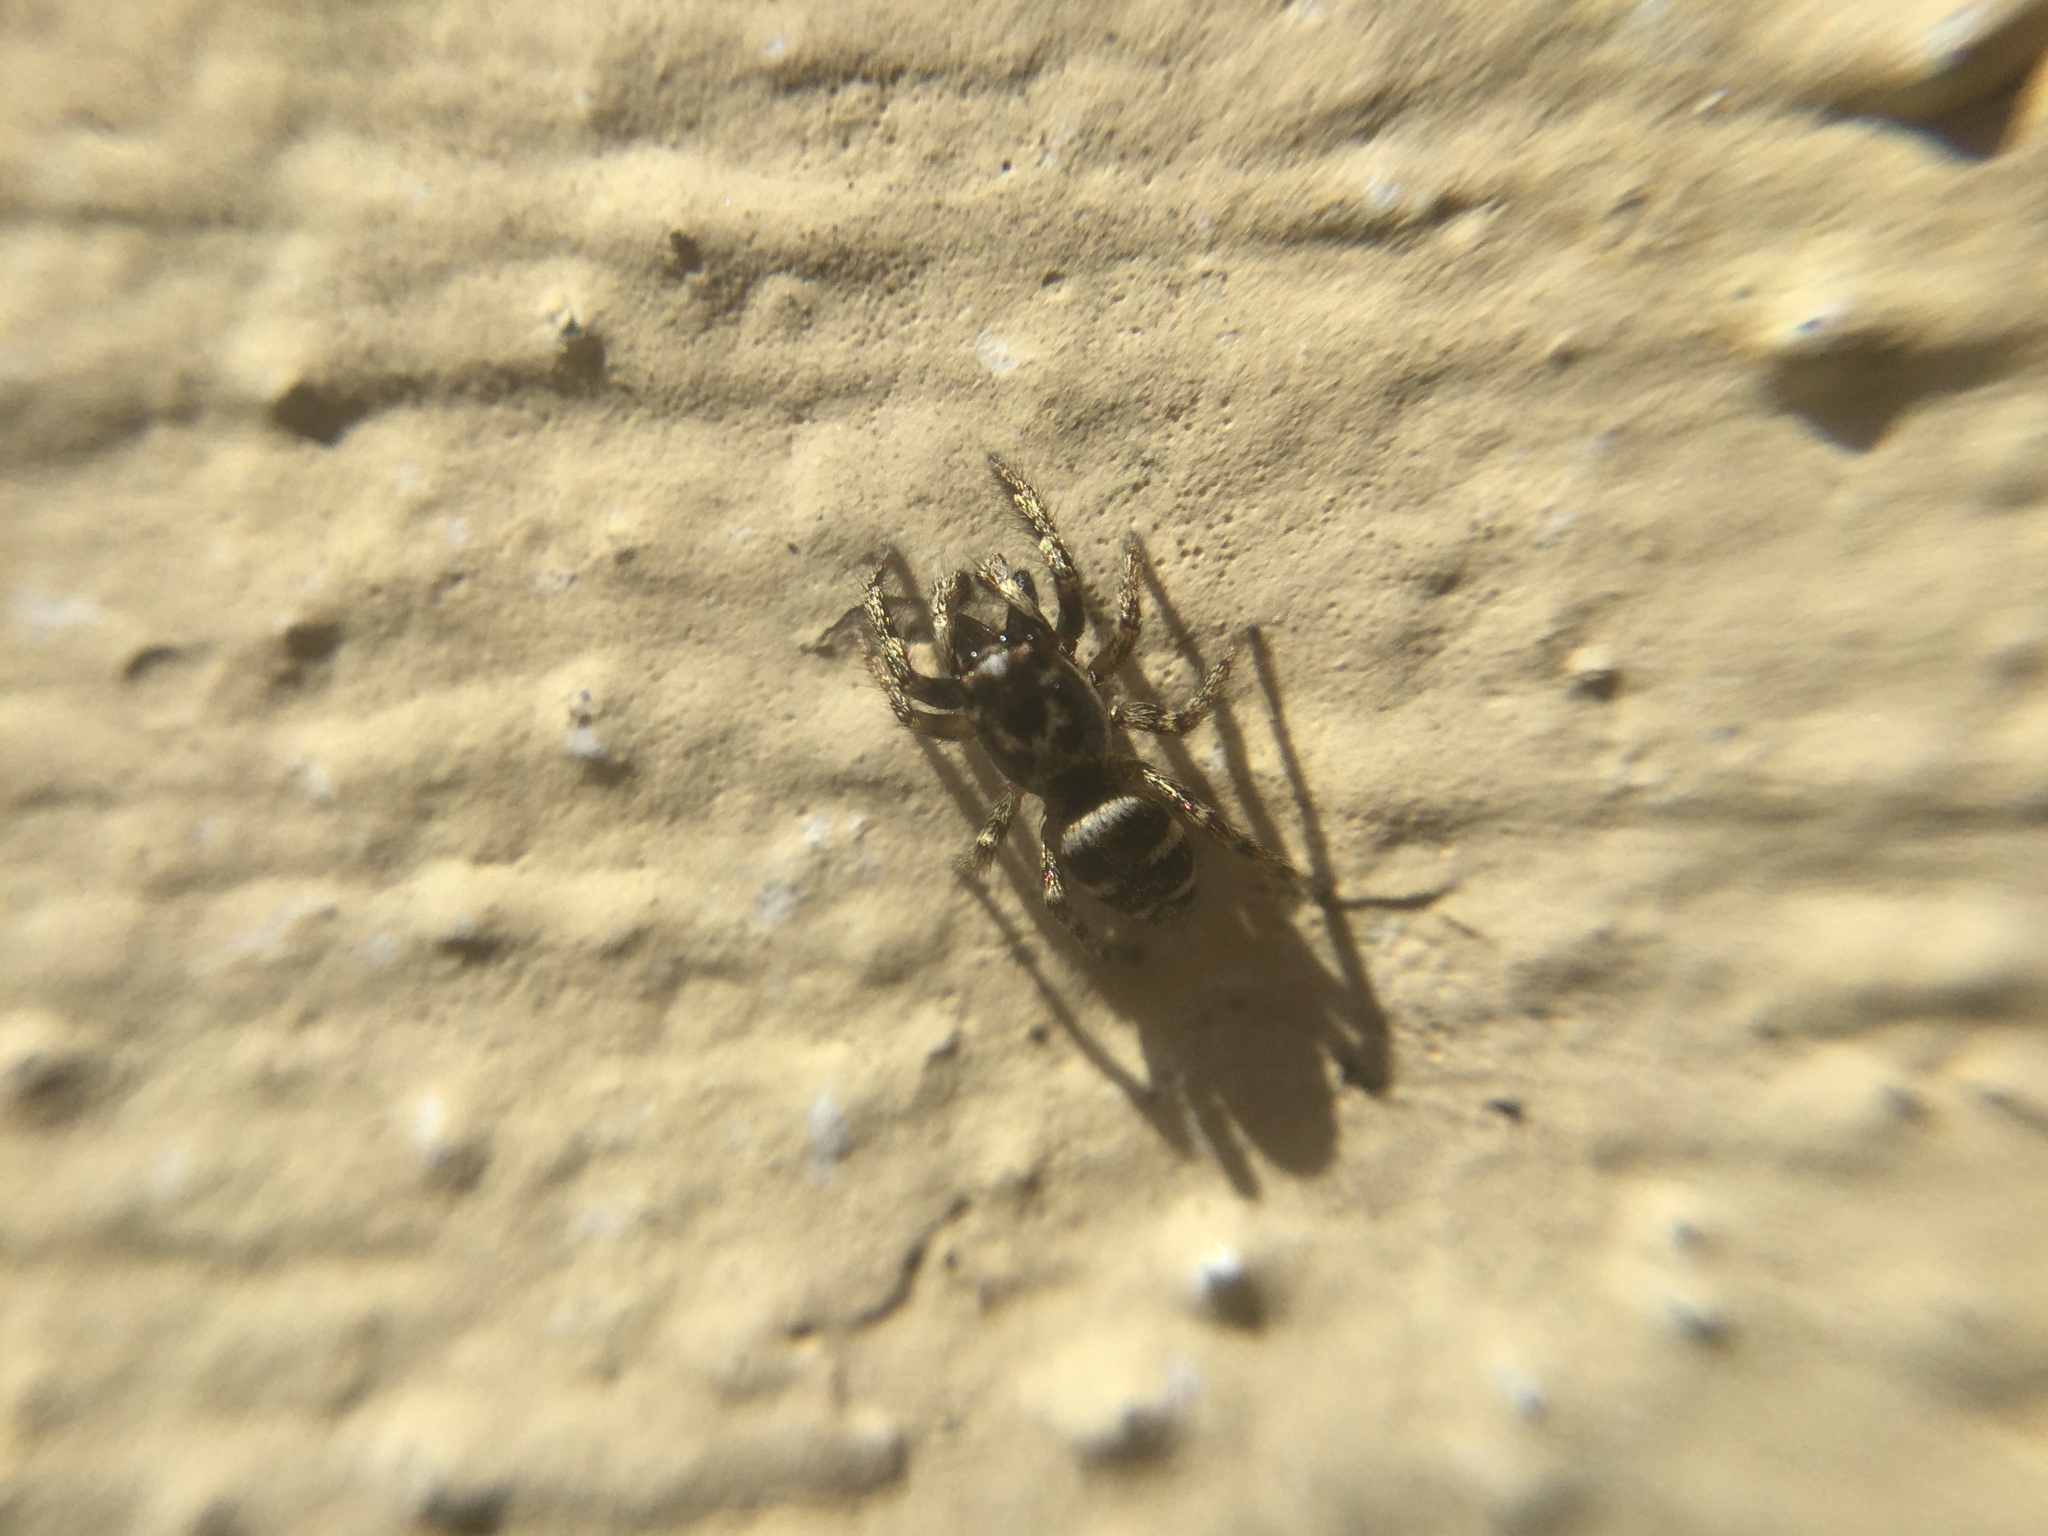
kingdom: Animalia
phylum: Arthropoda
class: Arachnida
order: Araneae
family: Salticidae
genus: Salticus
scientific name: Salticus scenicus
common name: Zebra jumper
